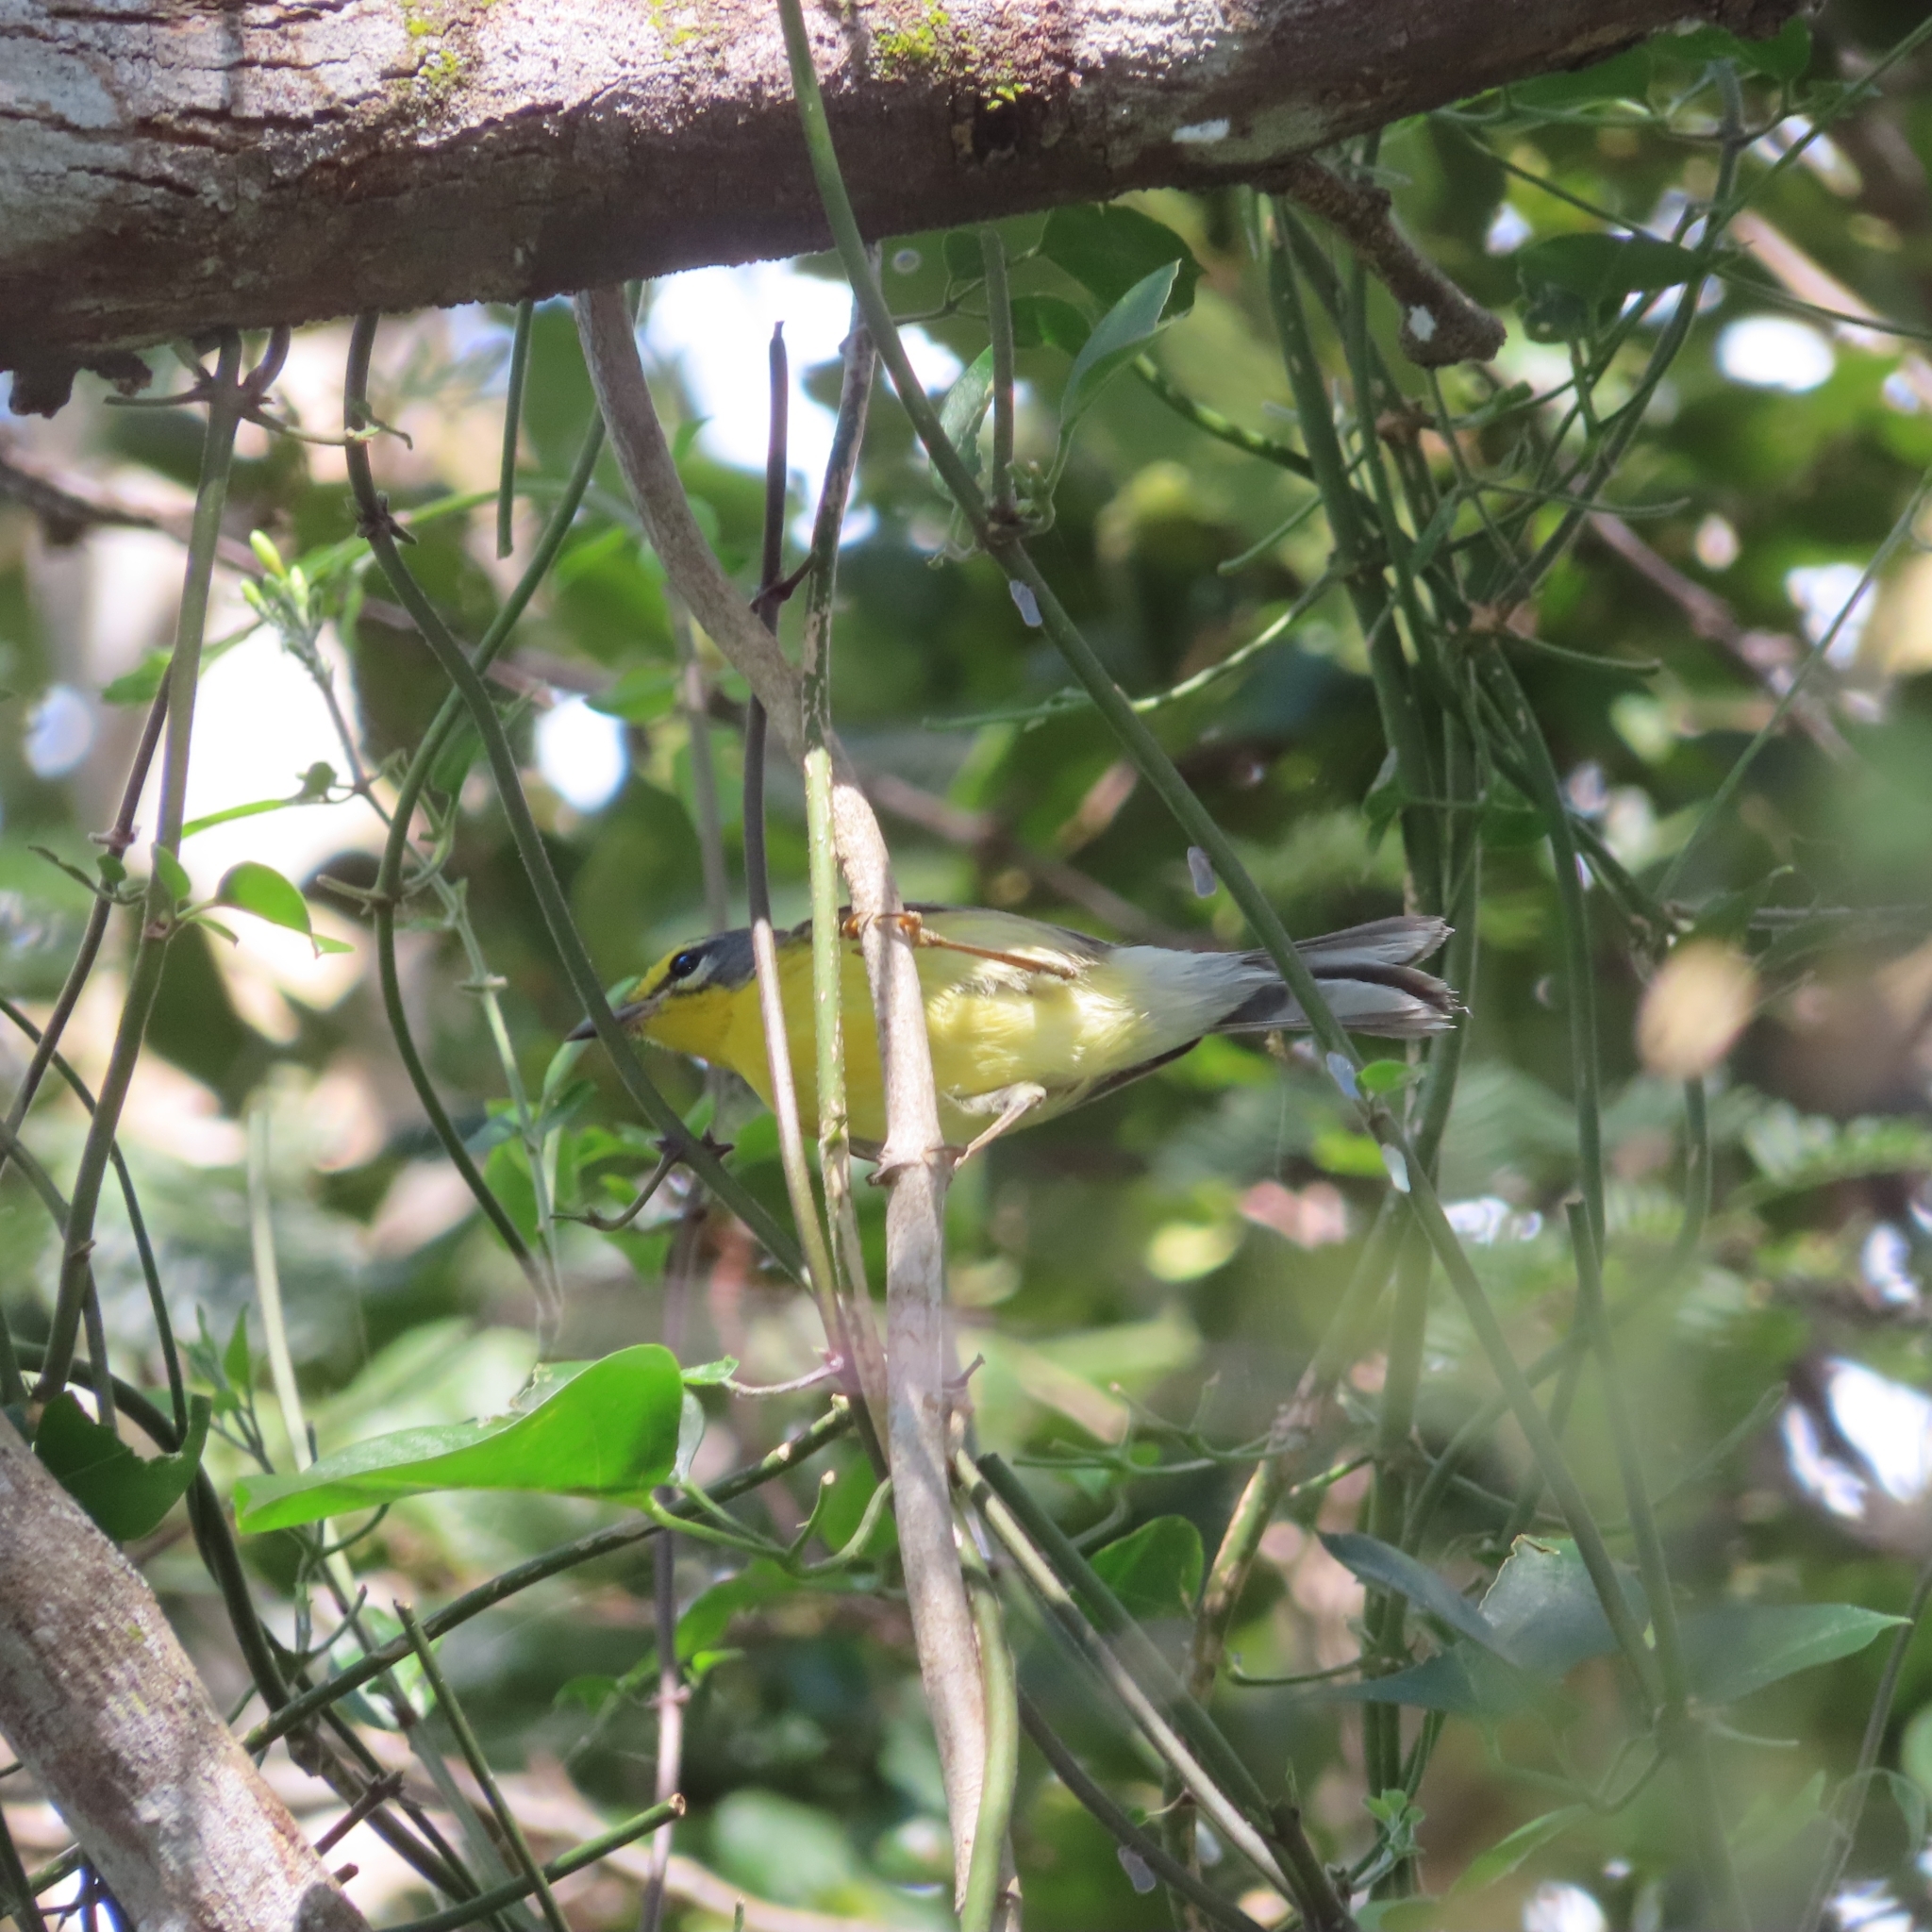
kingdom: Animalia
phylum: Chordata
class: Aves
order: Passeriformes
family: Parulidae
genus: Setophaga
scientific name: Setophaga adelaidae
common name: Adelaide's warbler
